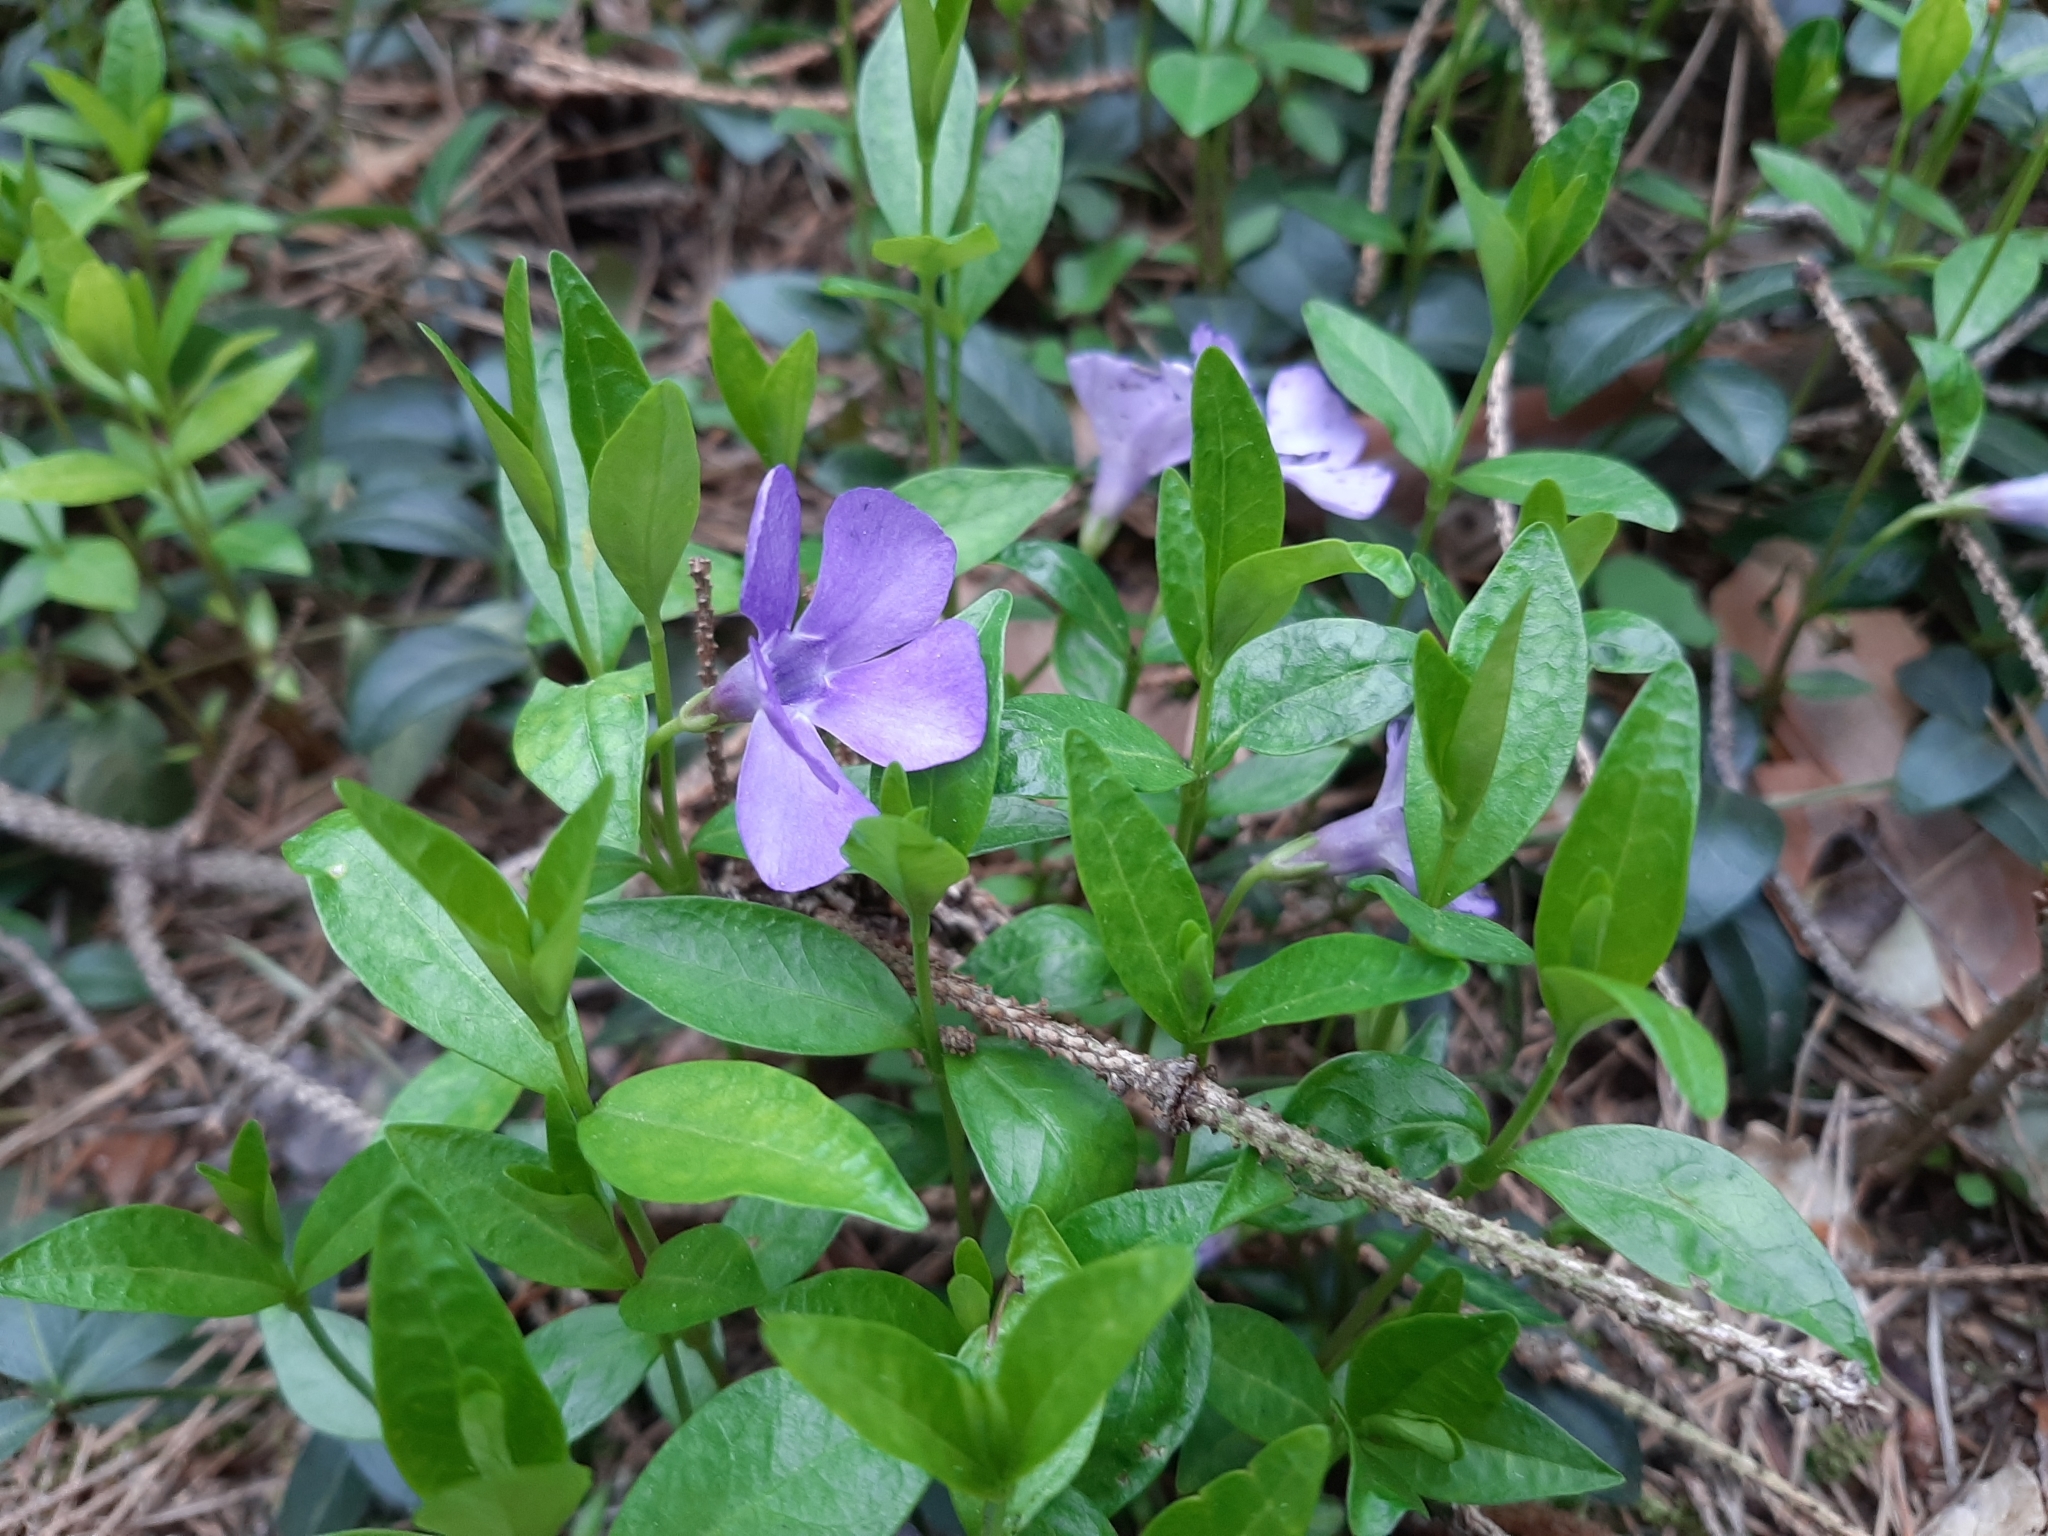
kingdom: Plantae
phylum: Tracheophyta
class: Magnoliopsida
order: Gentianales
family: Apocynaceae
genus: Vinca
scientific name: Vinca minor
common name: Lesser periwinkle
